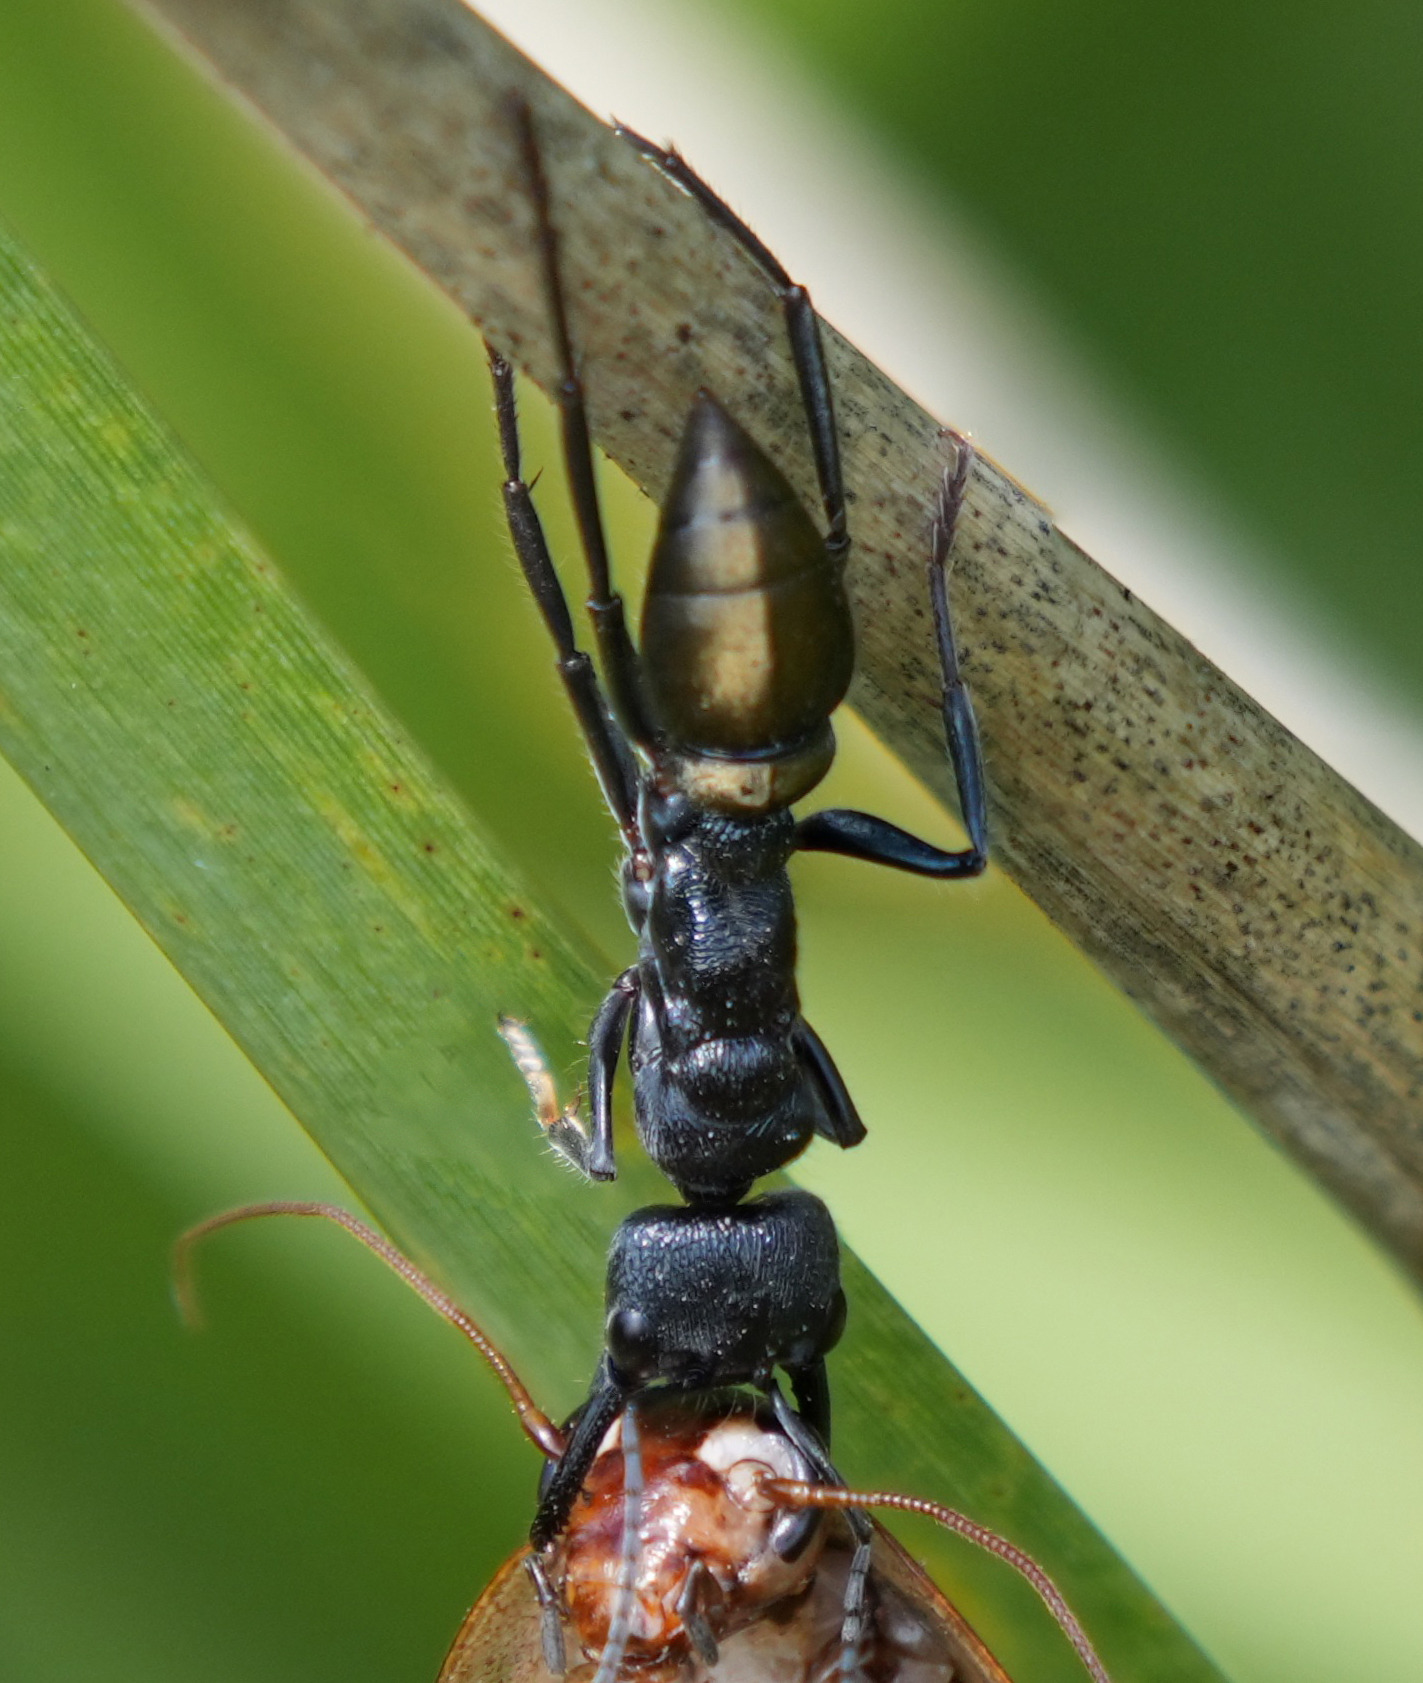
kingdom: Animalia
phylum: Arthropoda
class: Insecta
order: Hymenoptera
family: Formicidae
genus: Myrmecia
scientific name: Myrmecia piliventris
